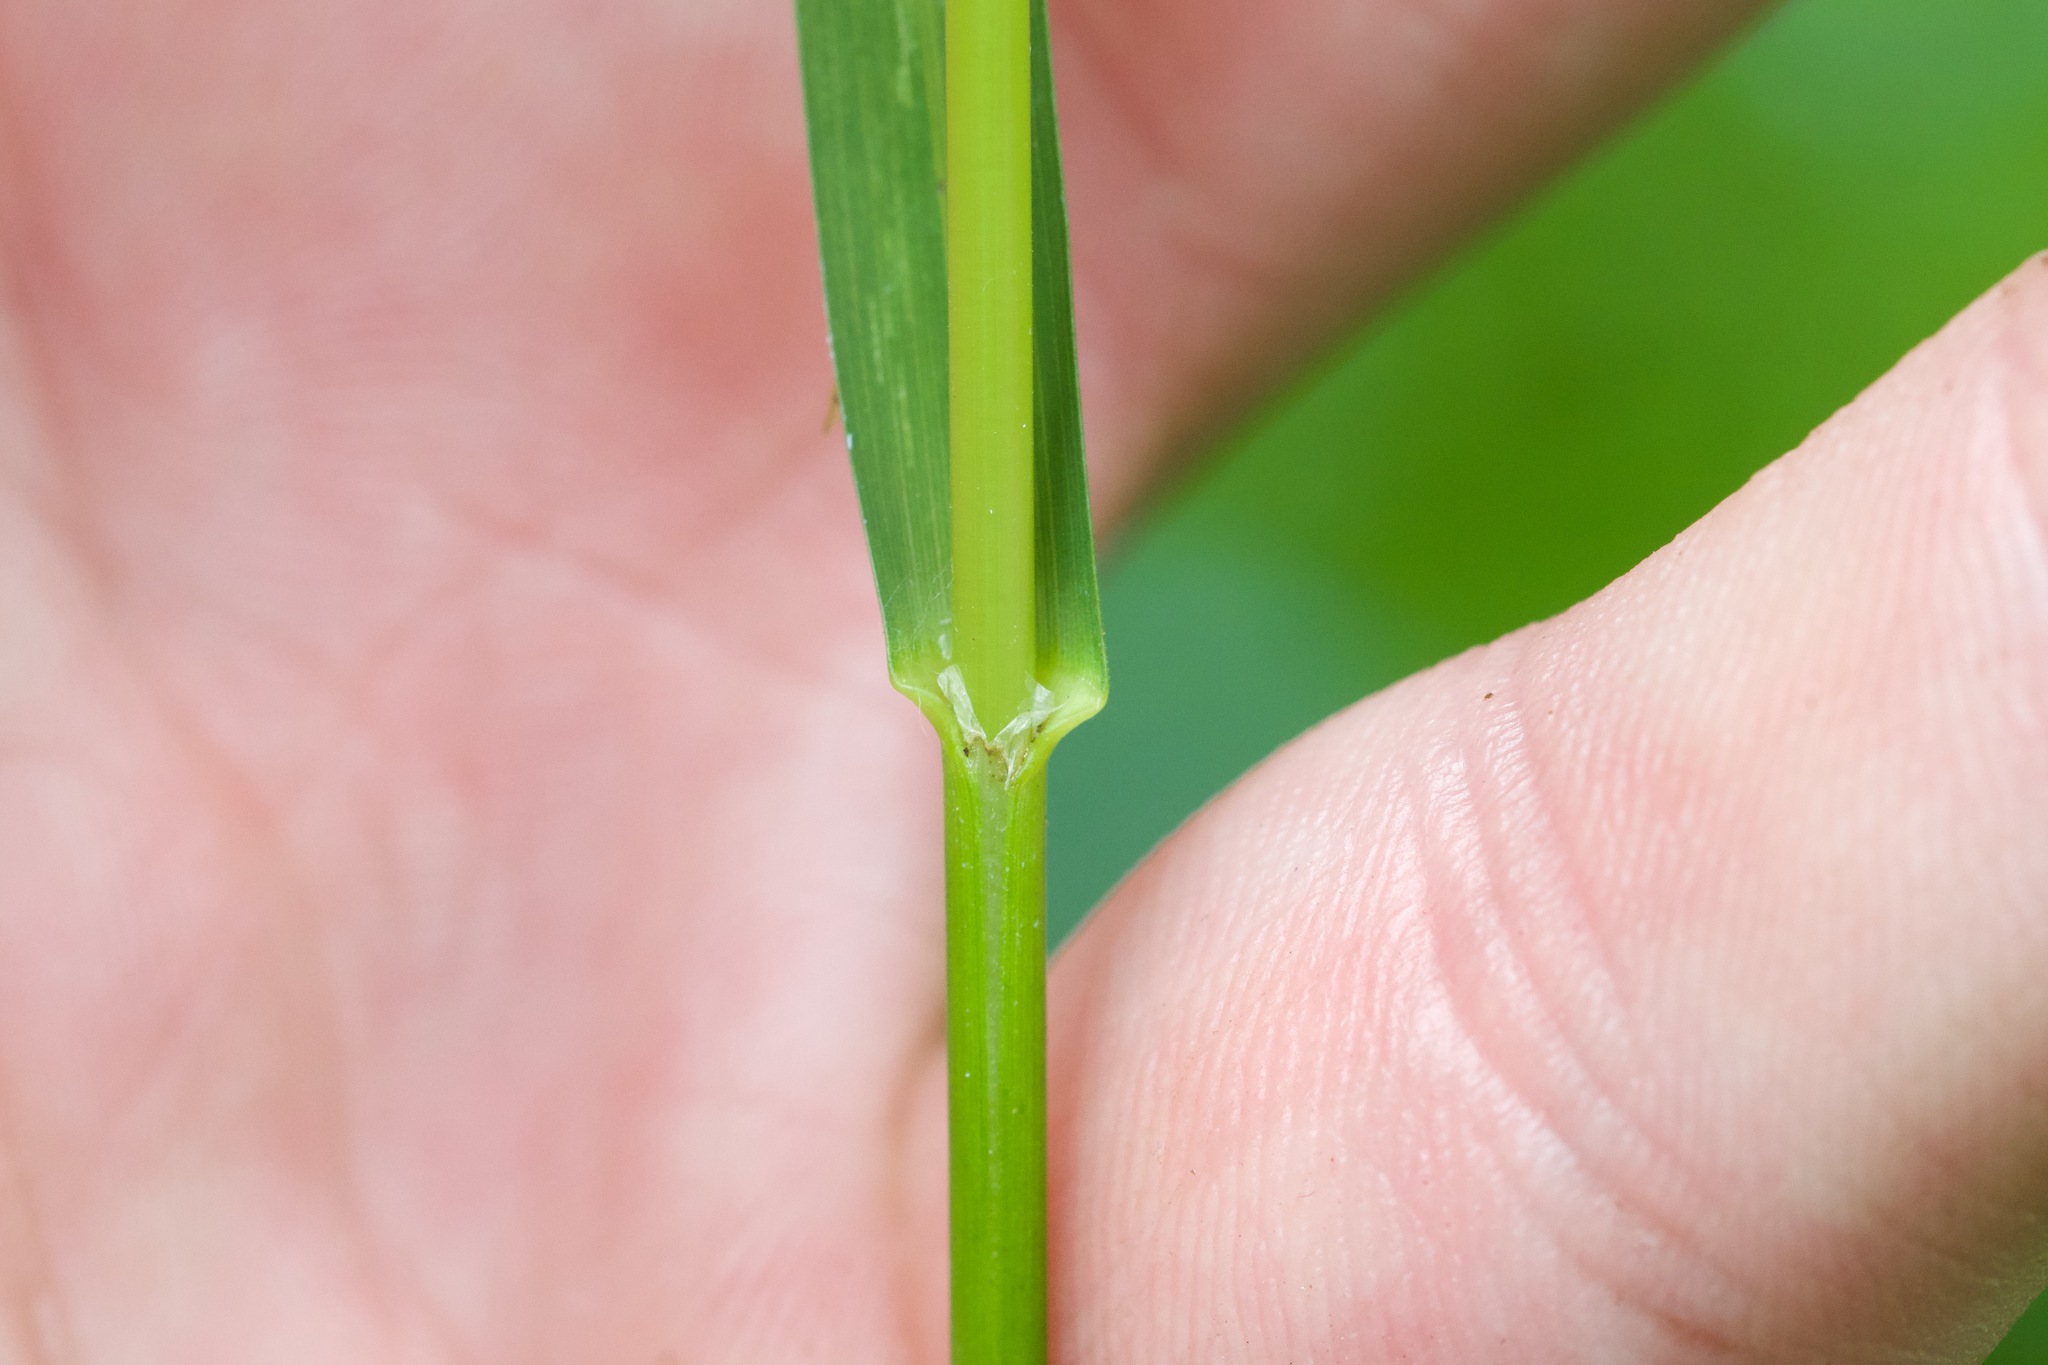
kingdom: Plantae
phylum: Tracheophyta
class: Liliopsida
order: Poales
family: Poaceae
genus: Glyceria
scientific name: Glyceria striata
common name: Fowl manna grass
